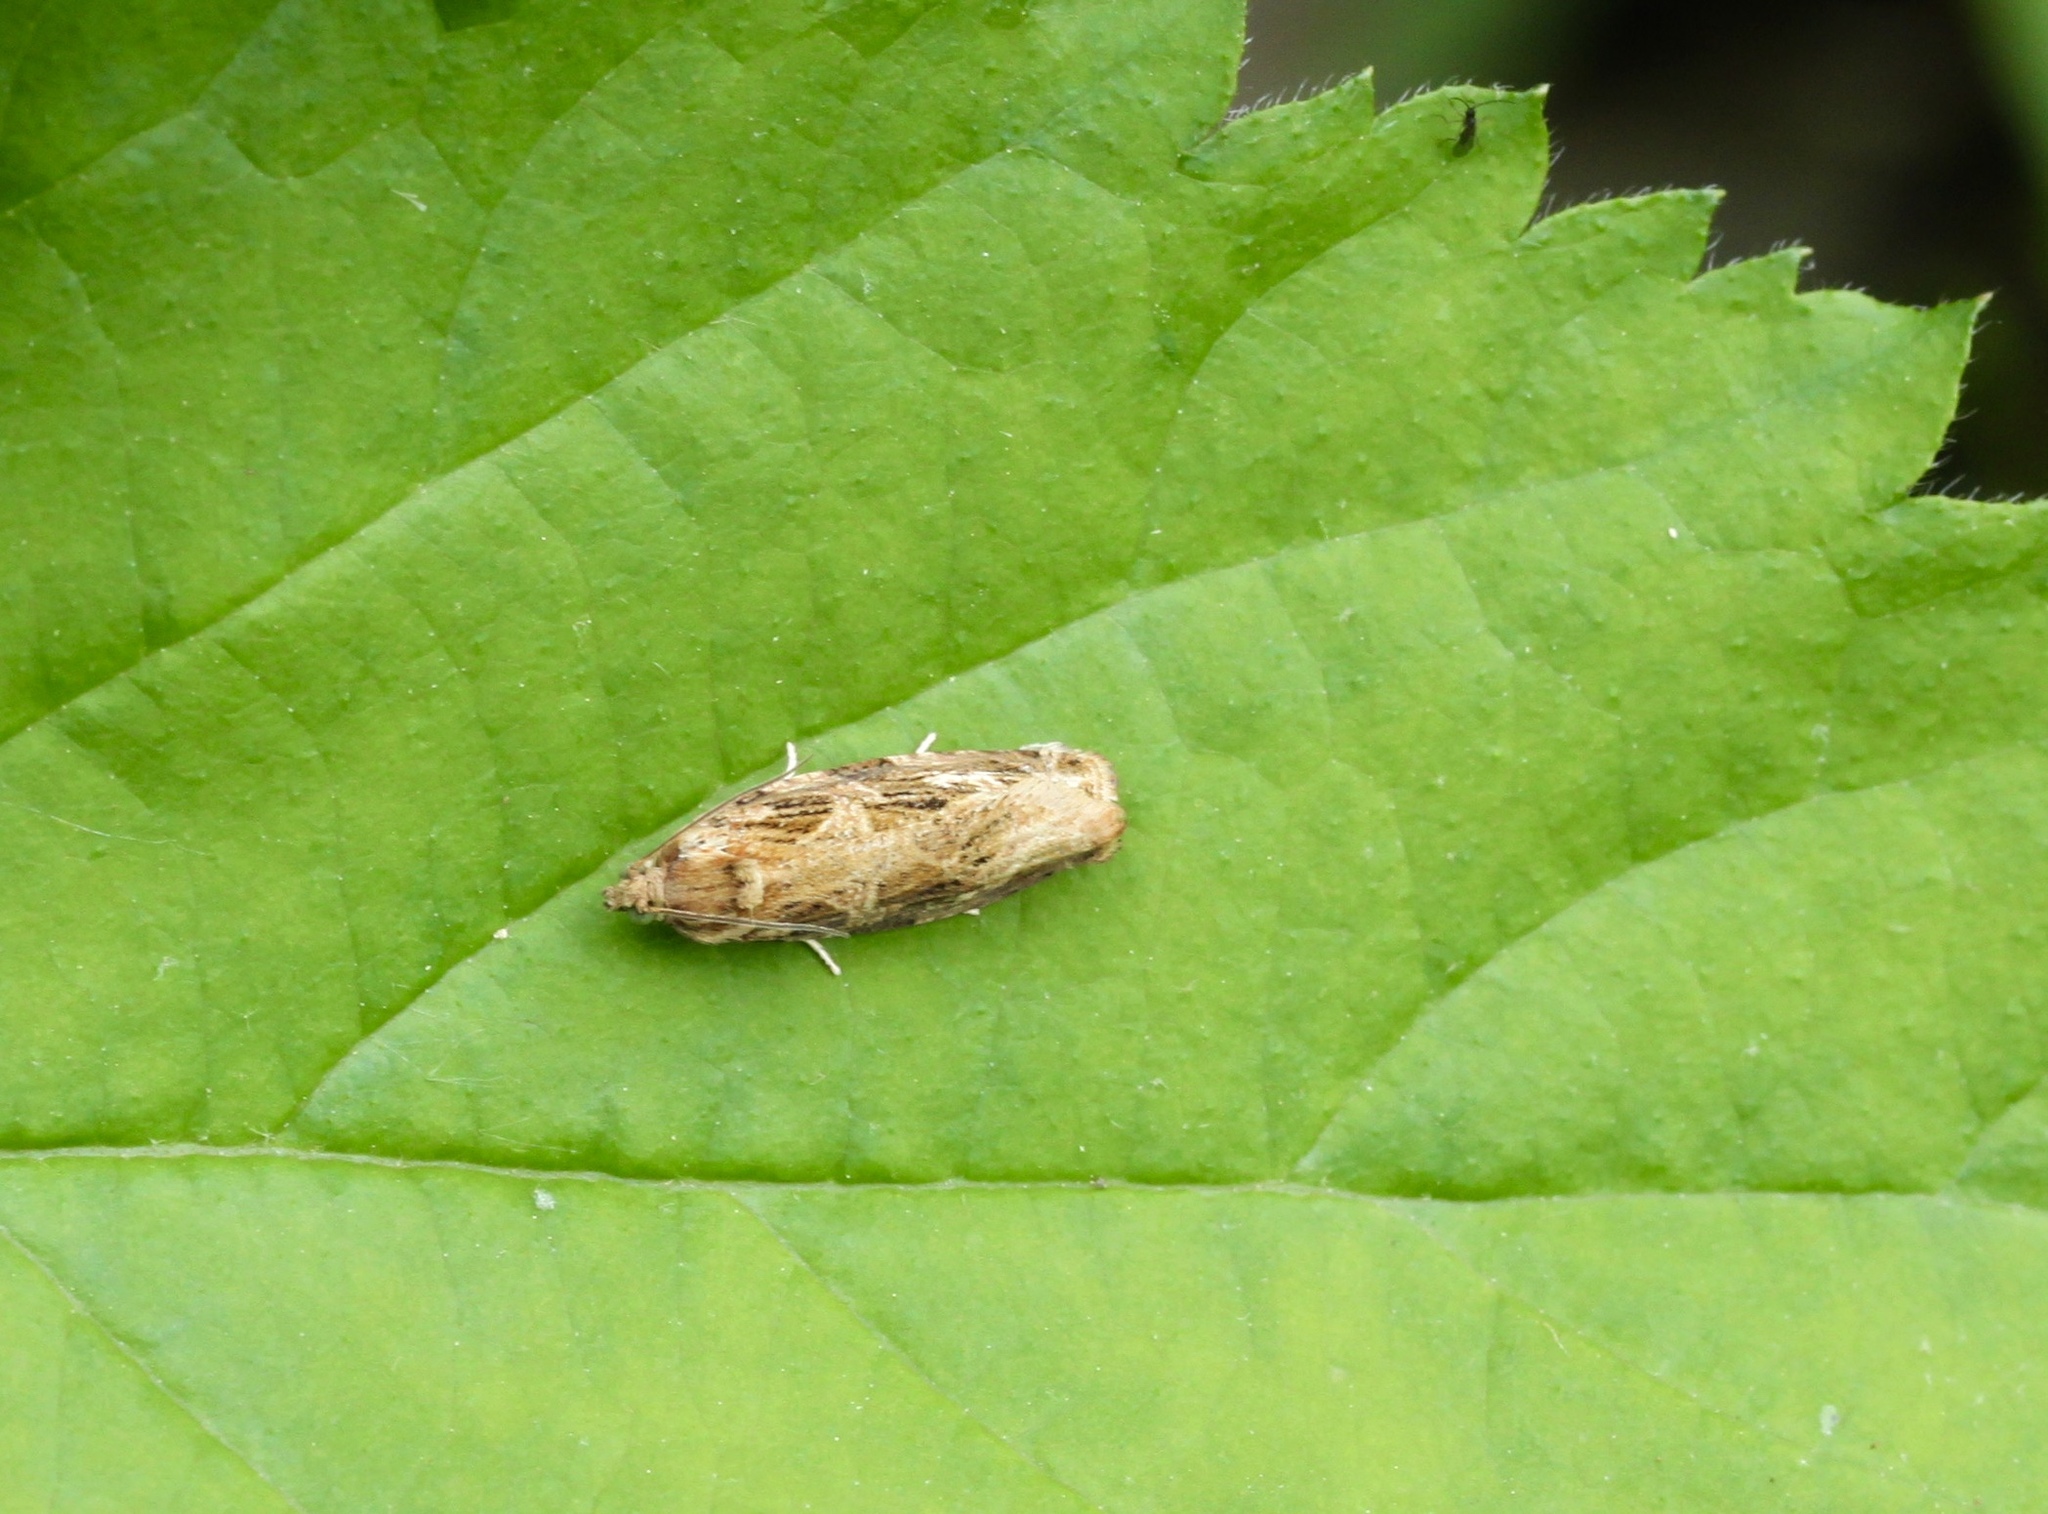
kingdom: Animalia
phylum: Arthropoda
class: Insecta
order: Lepidoptera
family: Tortricidae
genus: Phaecasiophora
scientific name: Phaecasiophora confixana
